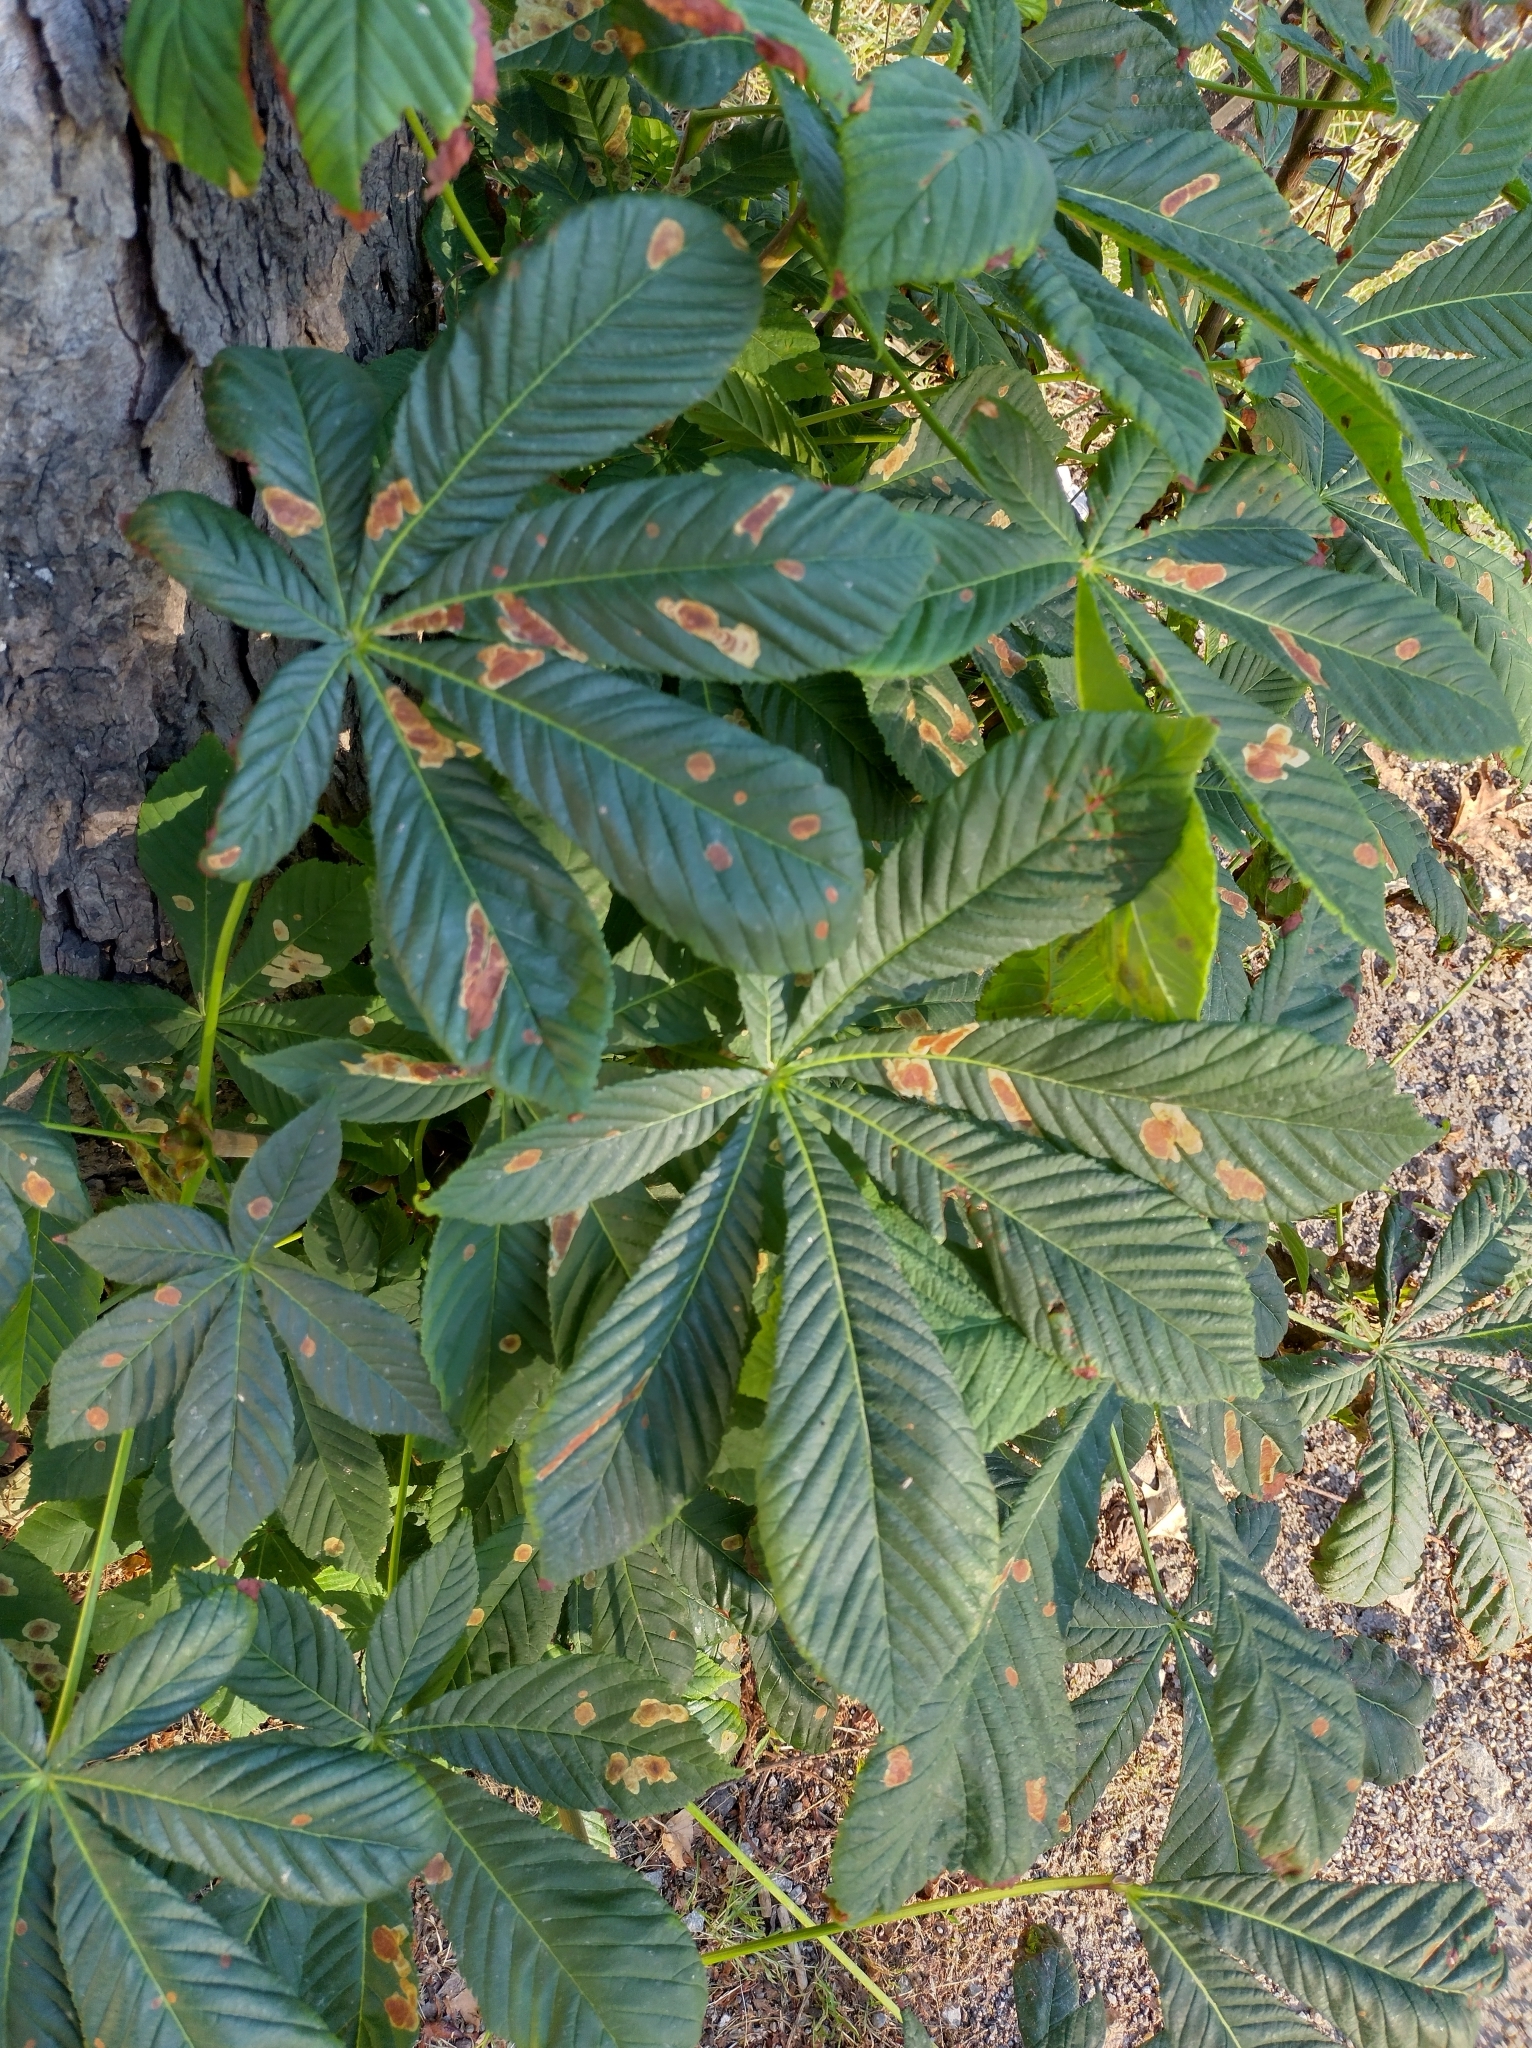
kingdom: Animalia
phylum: Arthropoda
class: Insecta
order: Lepidoptera
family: Gracillariidae
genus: Cameraria
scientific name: Cameraria ohridella
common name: Horse-chestnut leaf-miner
